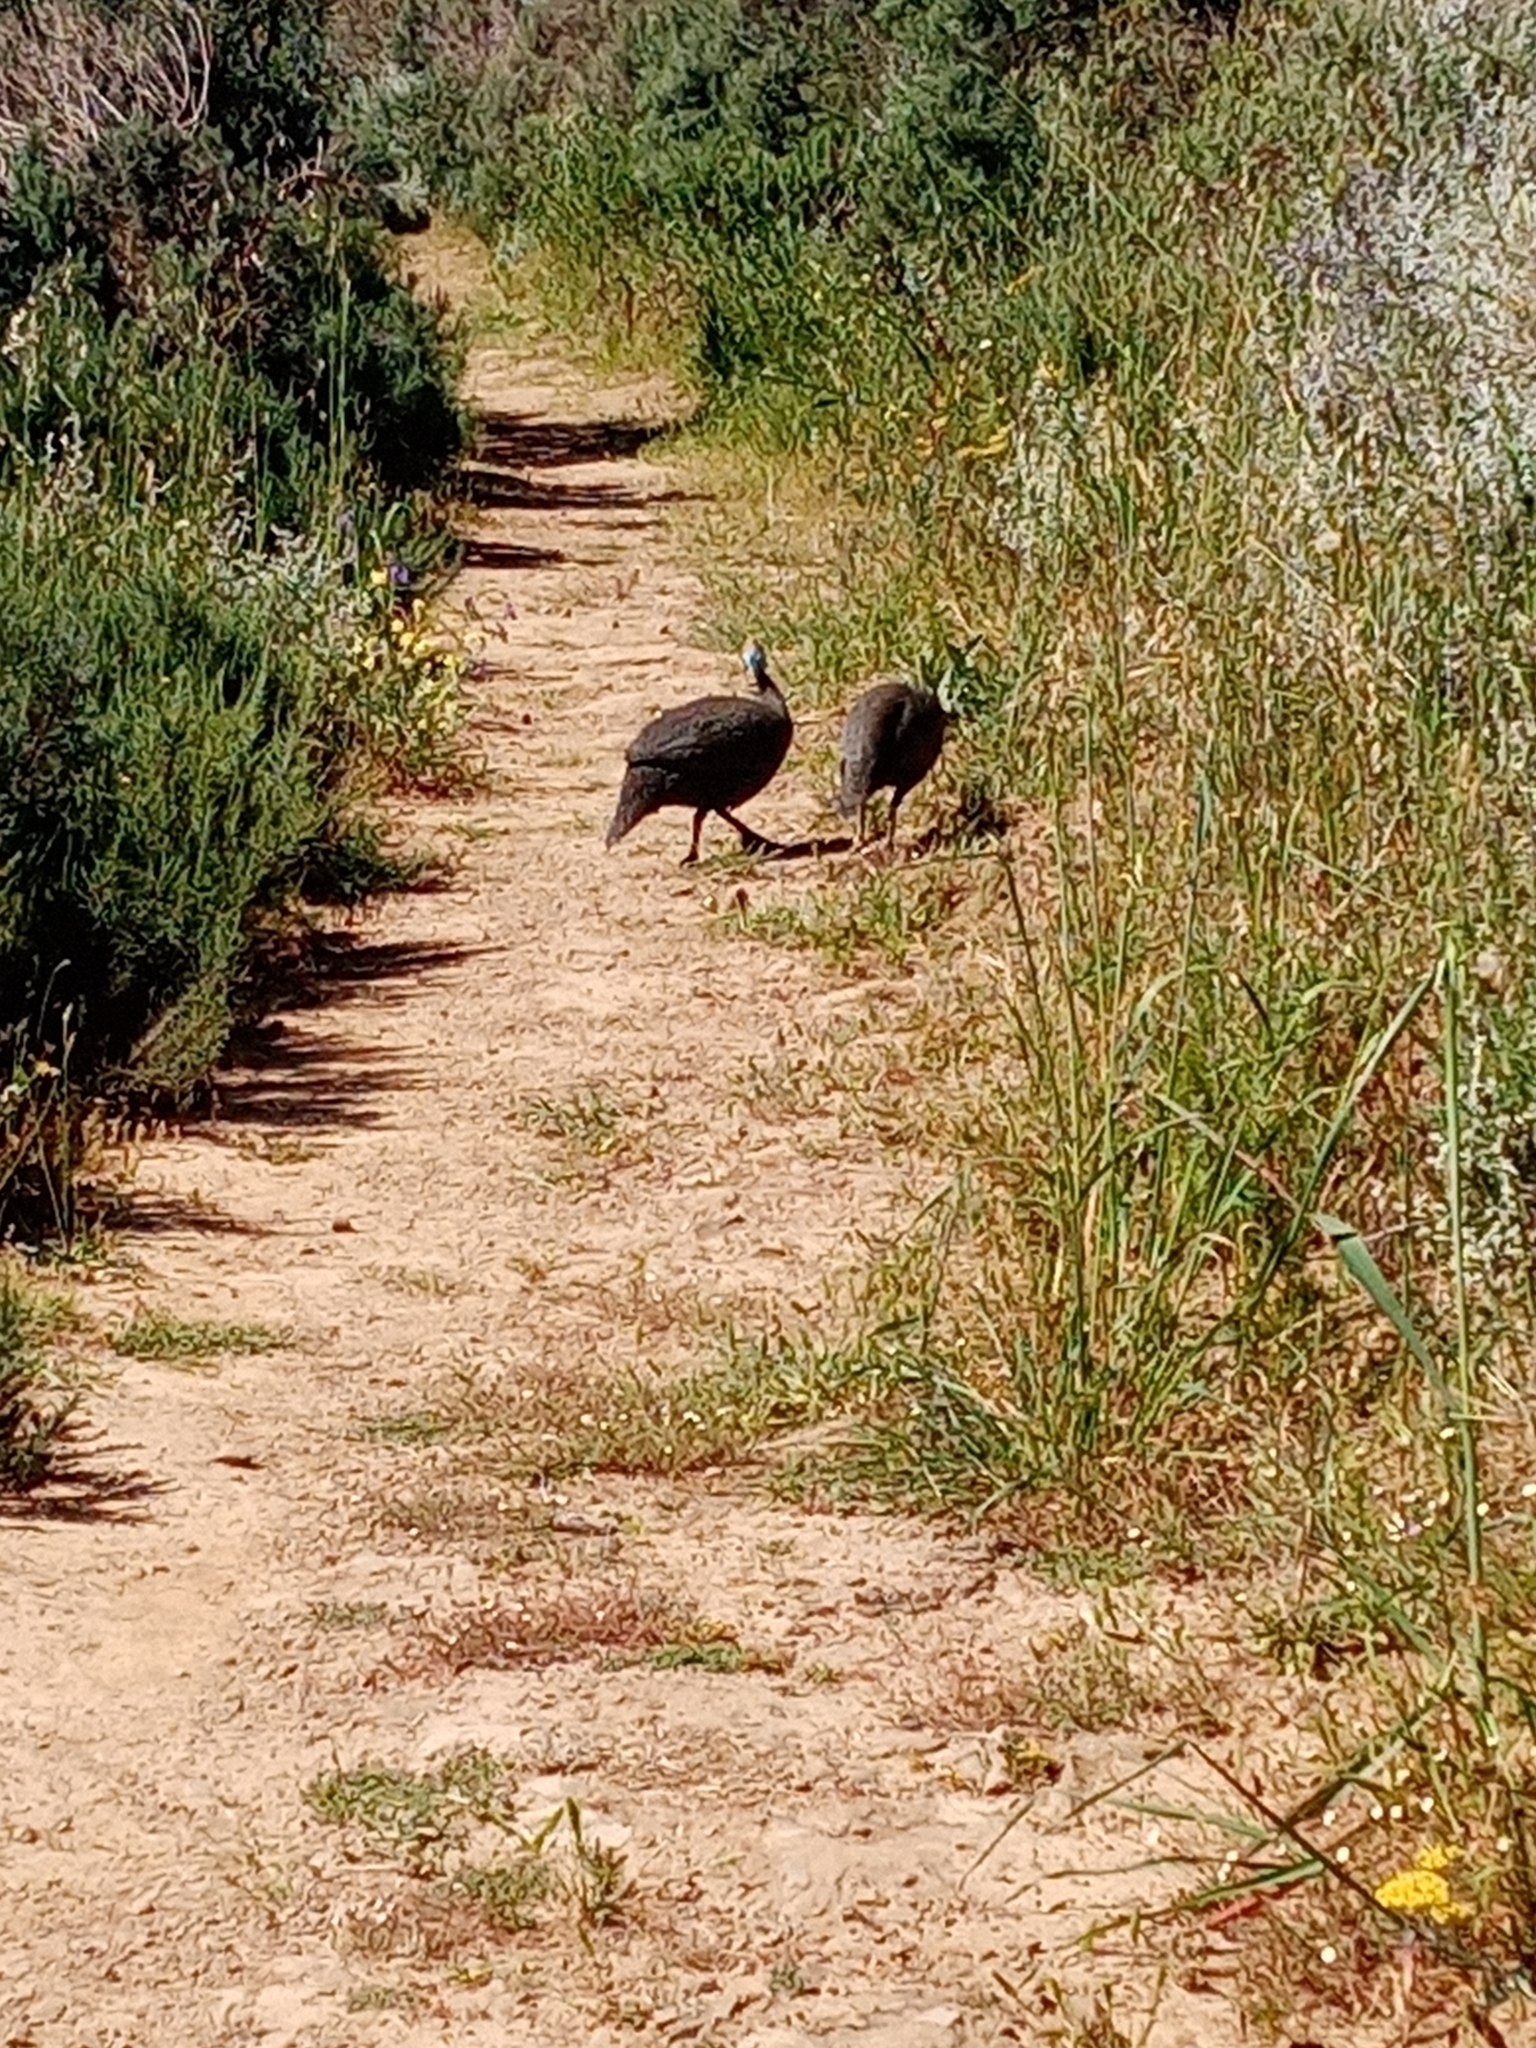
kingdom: Animalia
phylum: Chordata
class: Aves
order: Galliformes
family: Numididae
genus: Numida
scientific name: Numida meleagris
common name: Helmeted guineafowl
